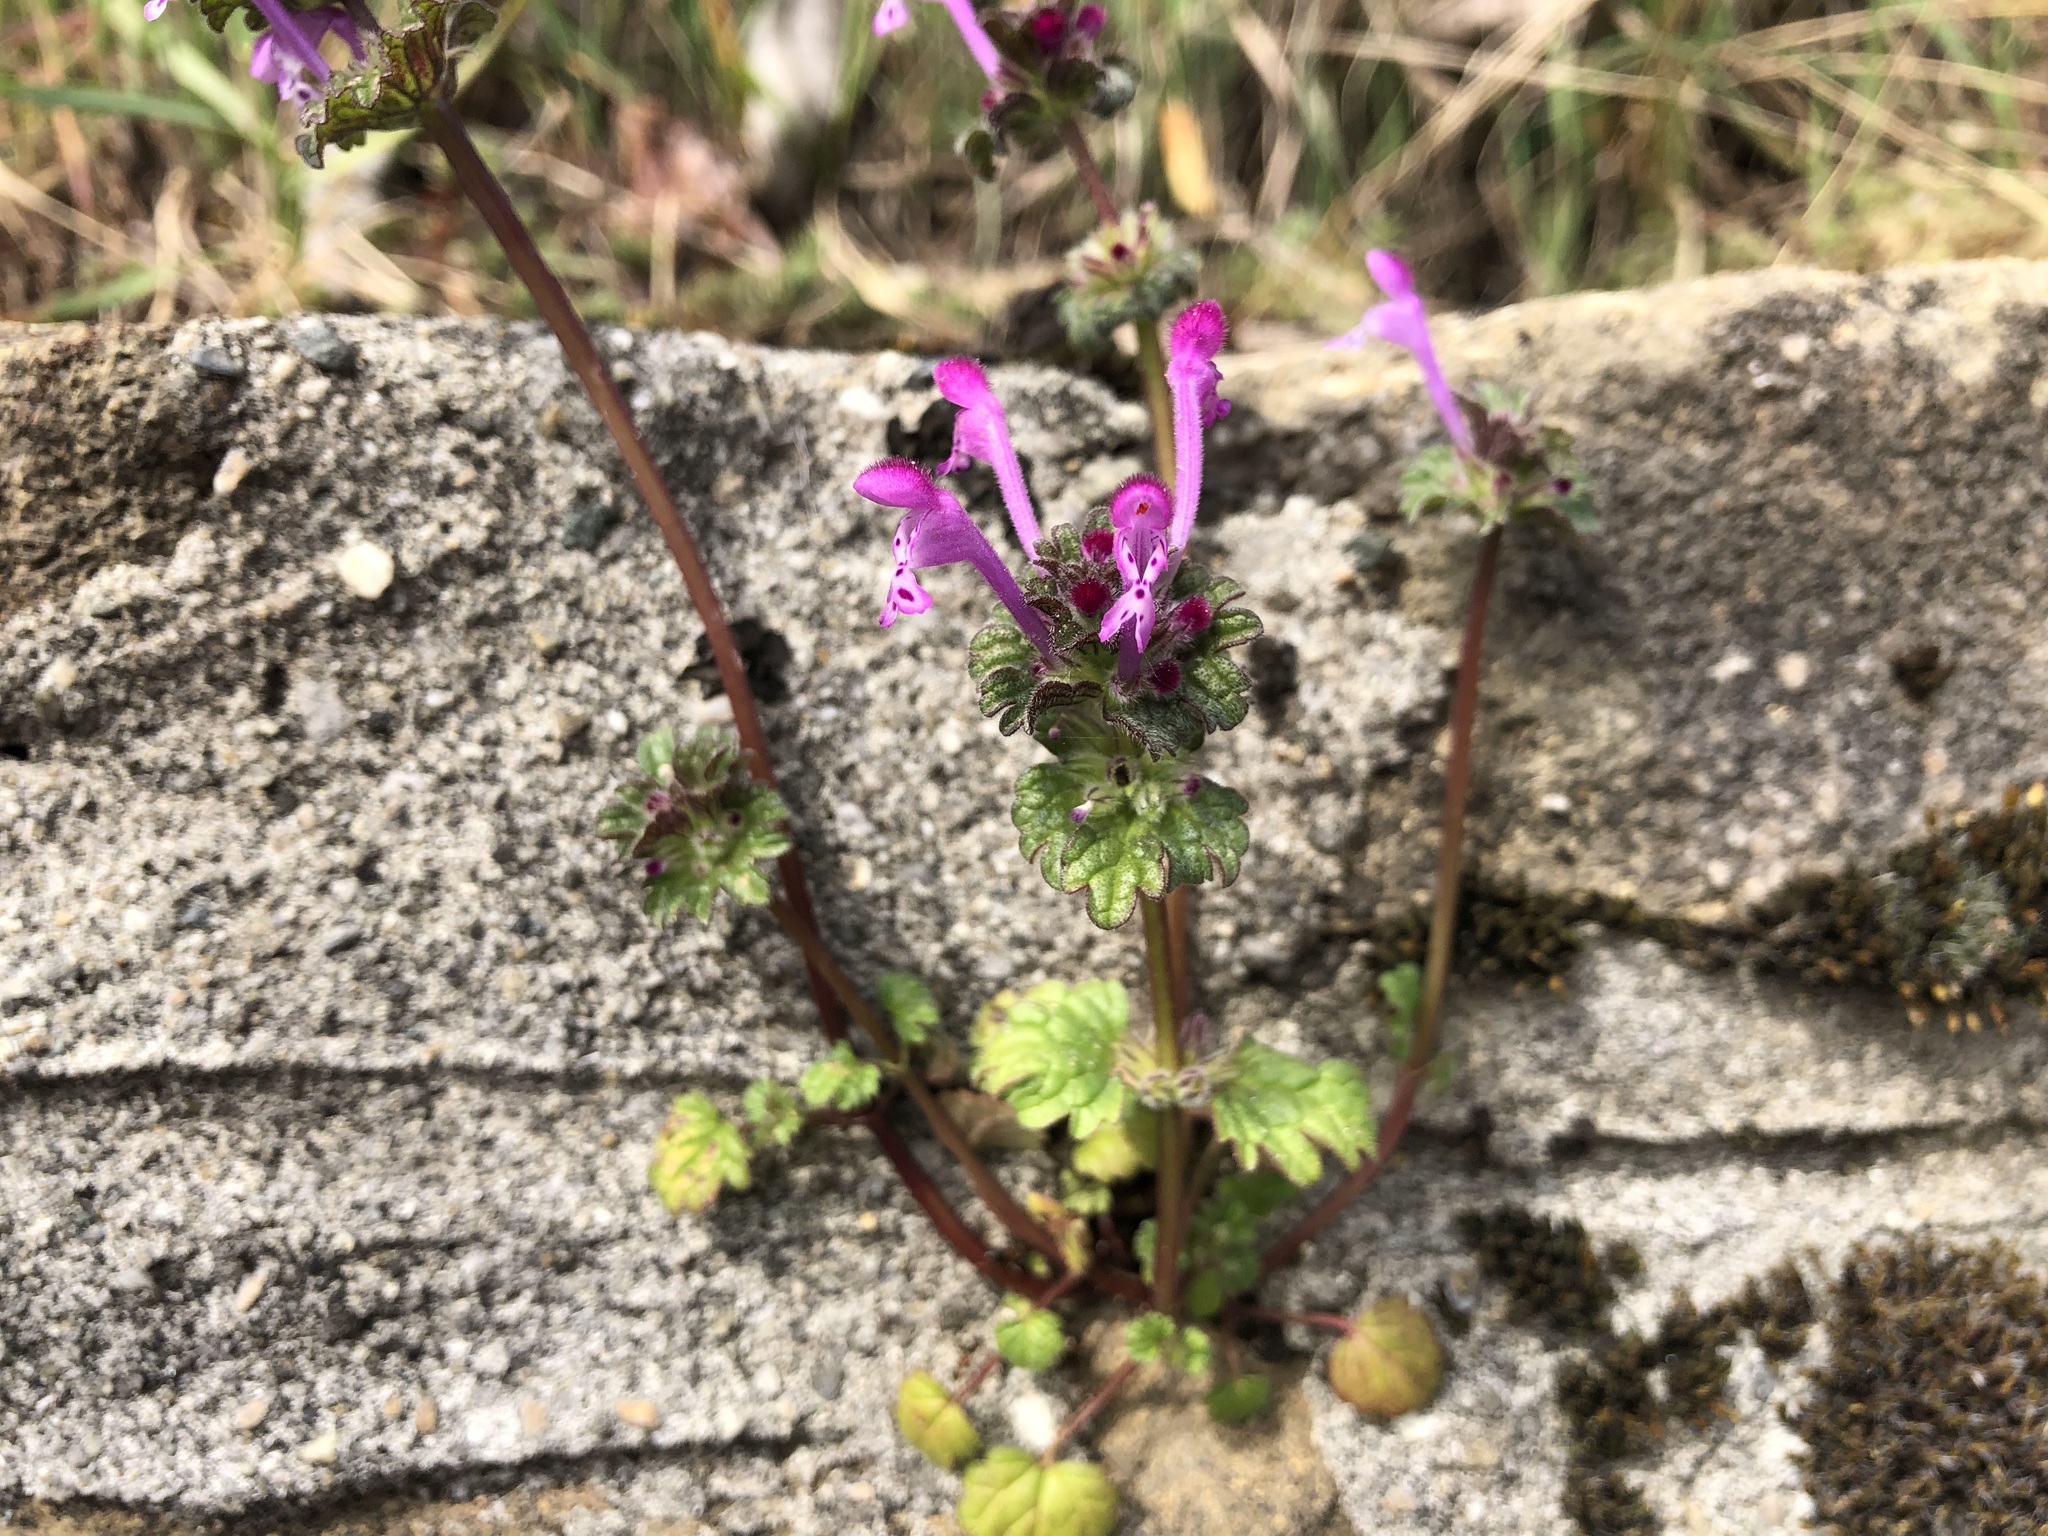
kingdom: Plantae
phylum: Tracheophyta
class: Magnoliopsida
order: Lamiales
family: Lamiaceae
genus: Lamium
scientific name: Lamium amplexicaule
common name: Henbit dead-nettle
